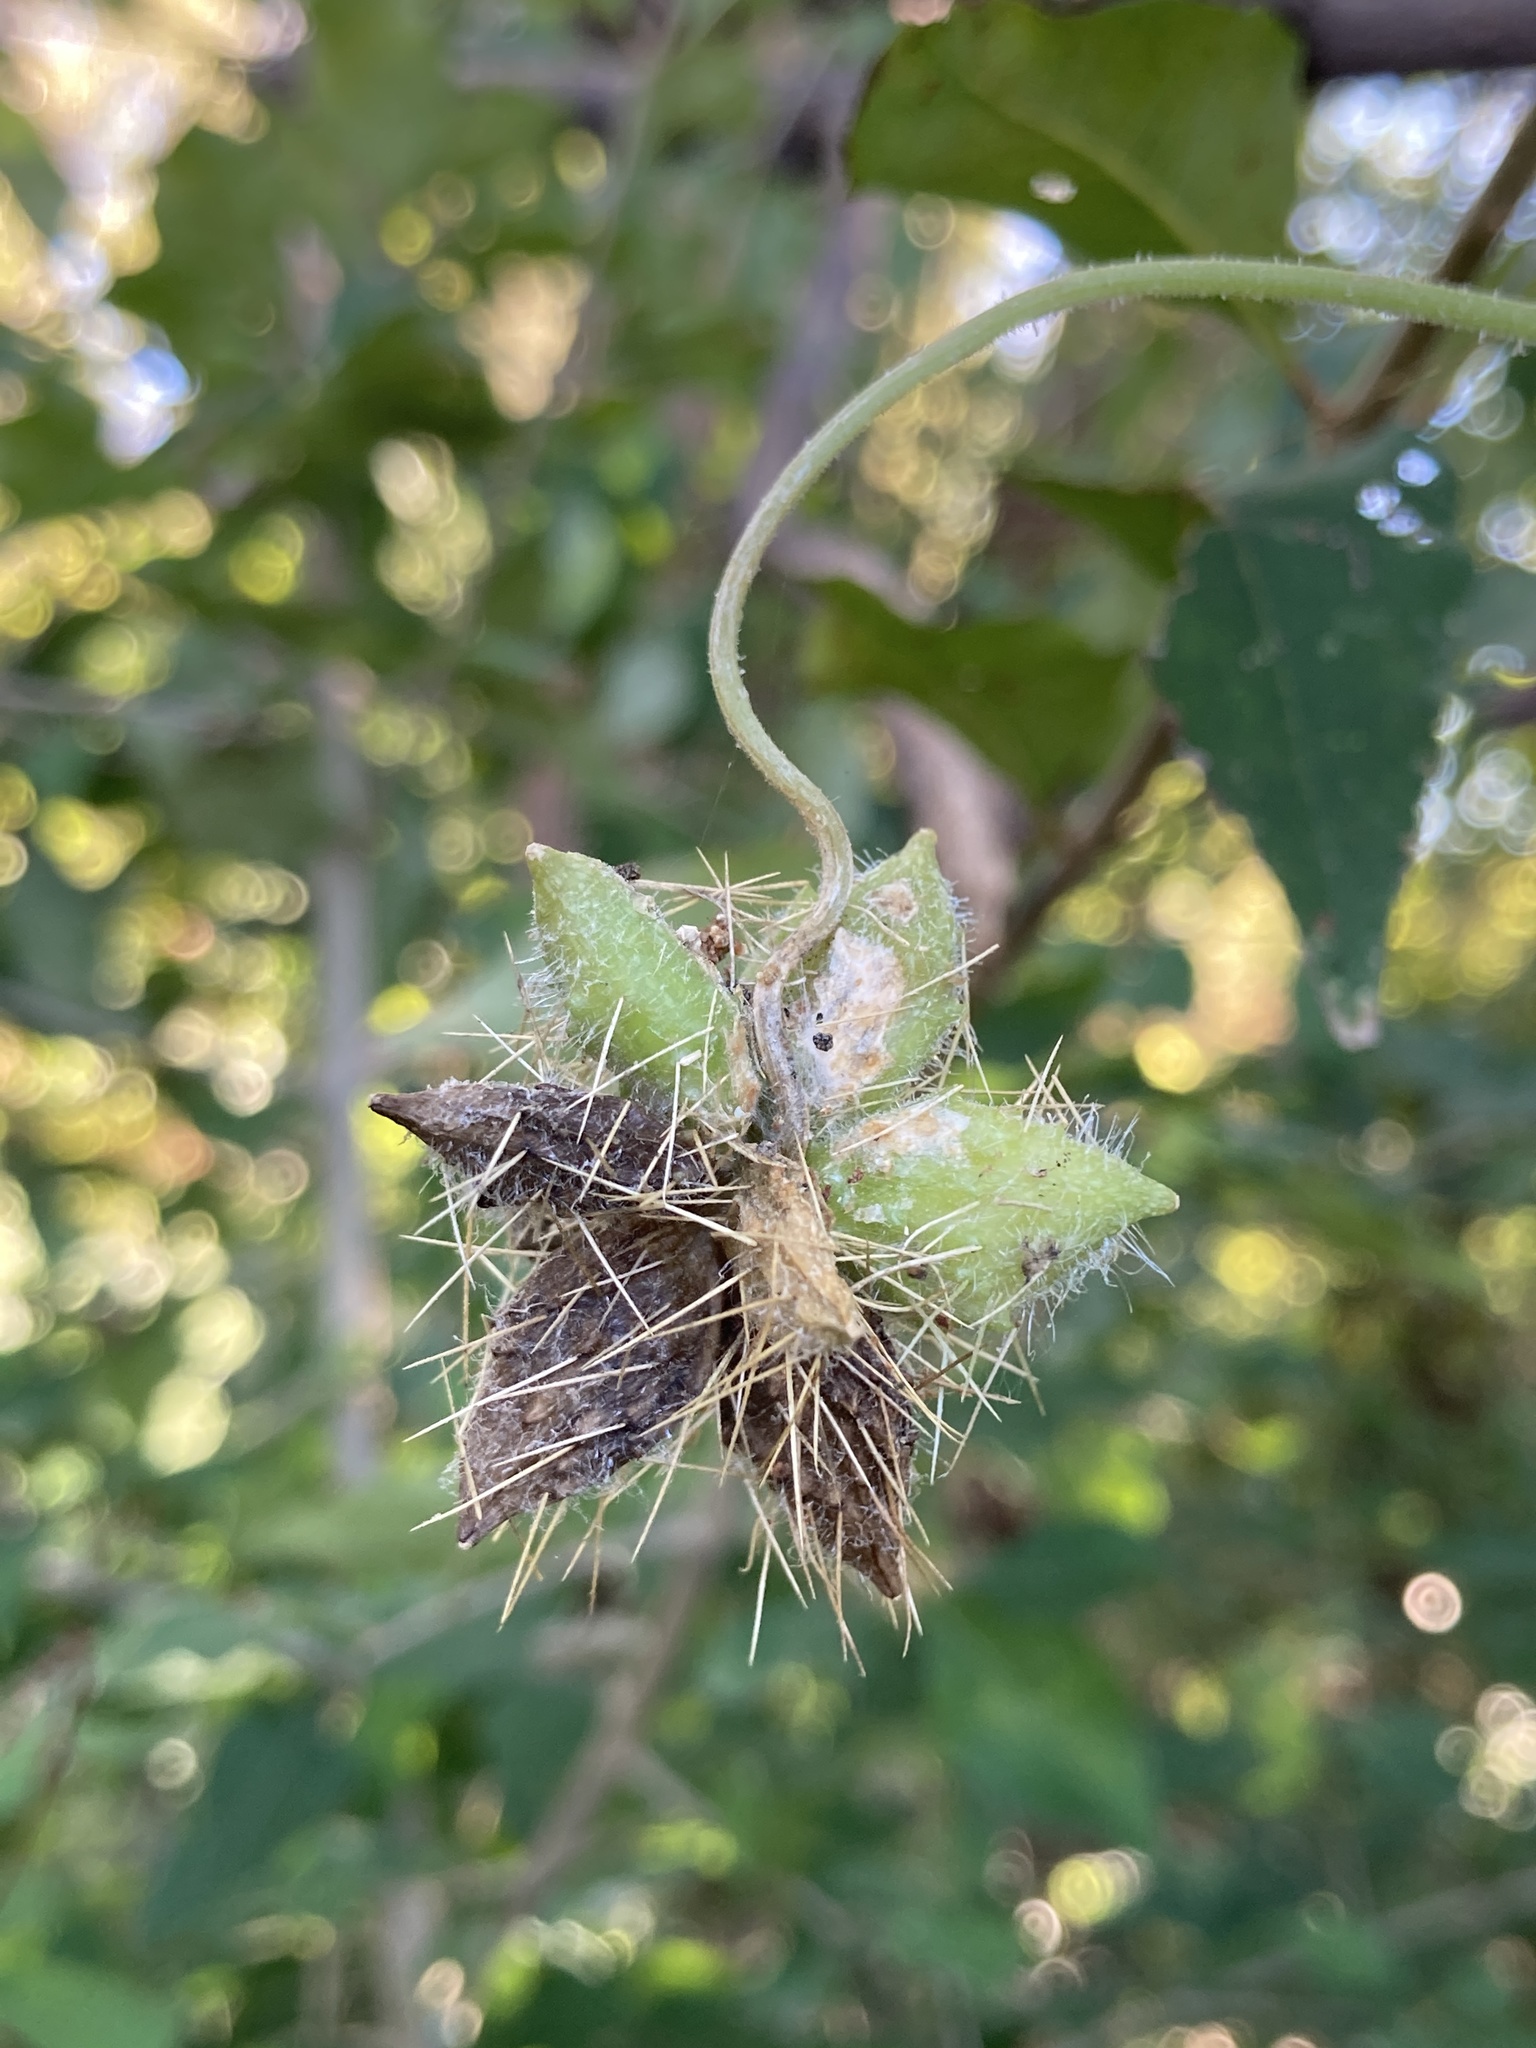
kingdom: Plantae
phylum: Tracheophyta
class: Magnoliopsida
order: Cucurbitales
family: Cucurbitaceae
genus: Sicyos
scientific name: Sicyos angulatus
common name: Angled burr cucumber
